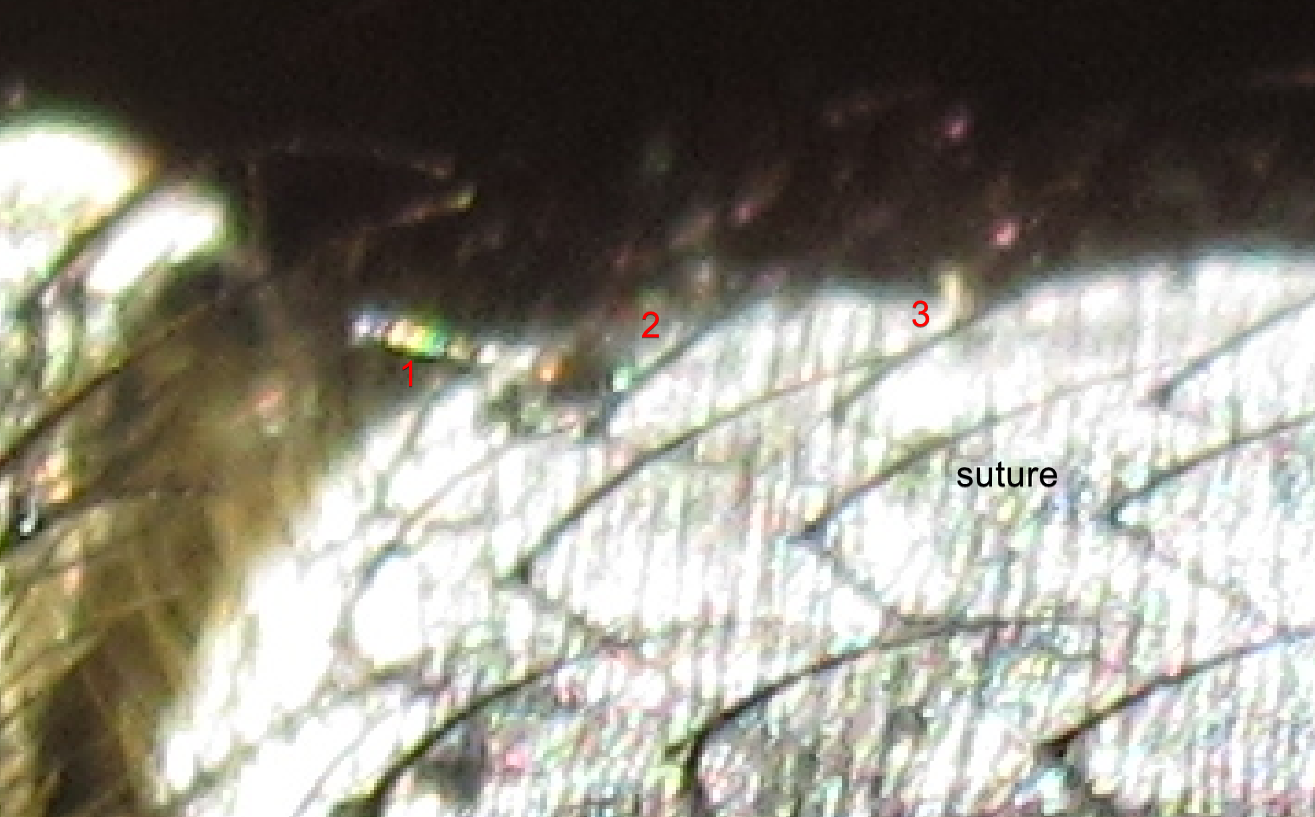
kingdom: Animalia
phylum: Arthropoda
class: Insecta
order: Diptera
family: Calliphoridae
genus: Calliphora
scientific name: Calliphora stygia
